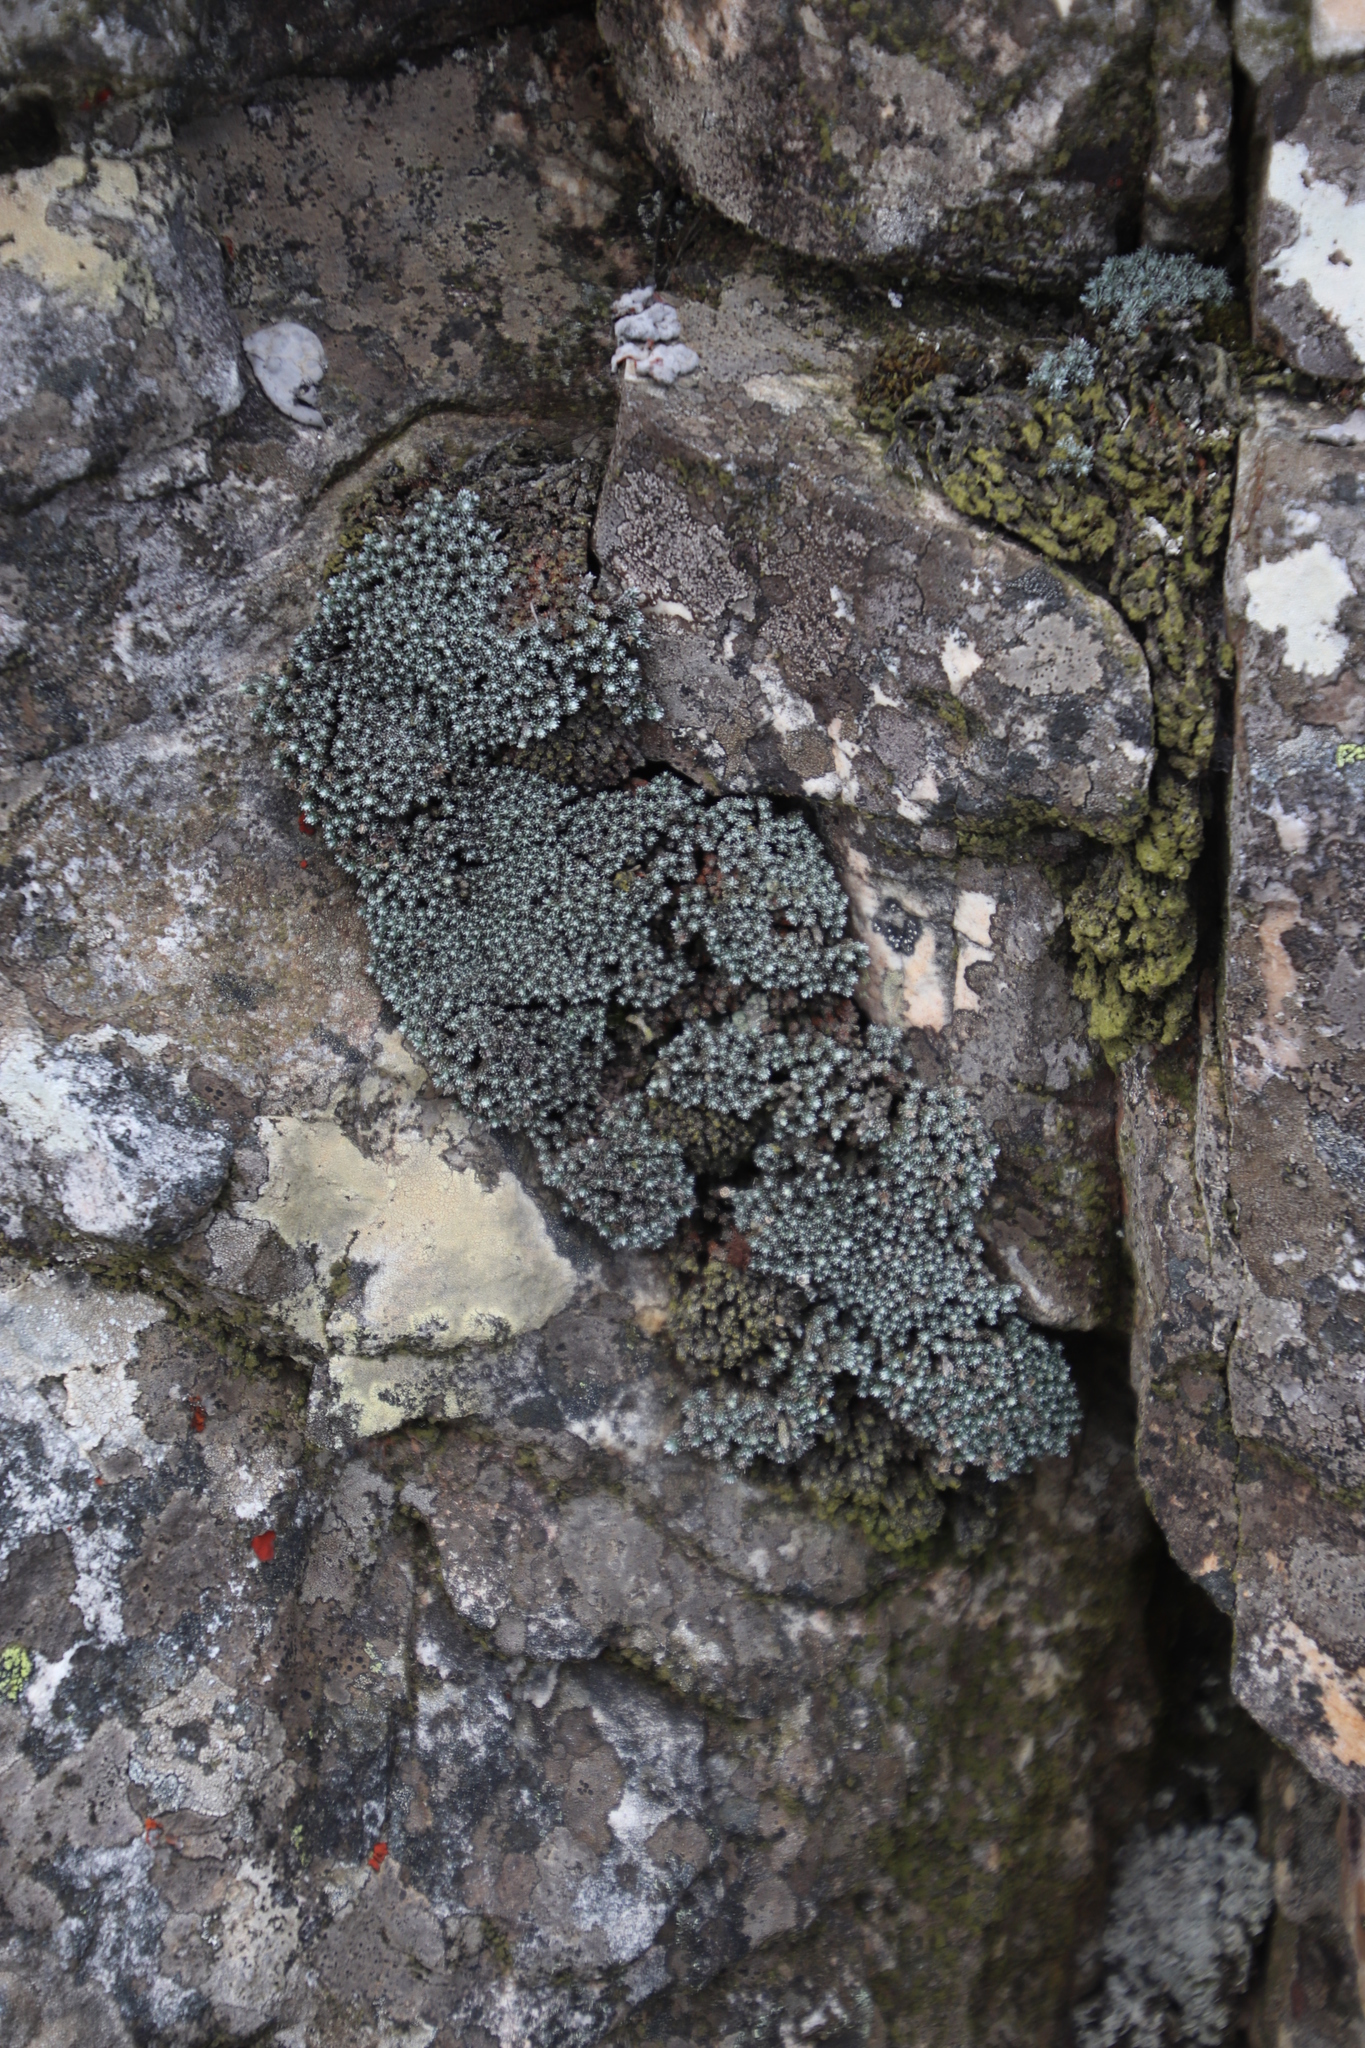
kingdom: Plantae
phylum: Tracheophyta
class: Magnoliopsida
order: Asterales
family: Asteraceae
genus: Muscosomorphe
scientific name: Muscosomorphe aretioides
